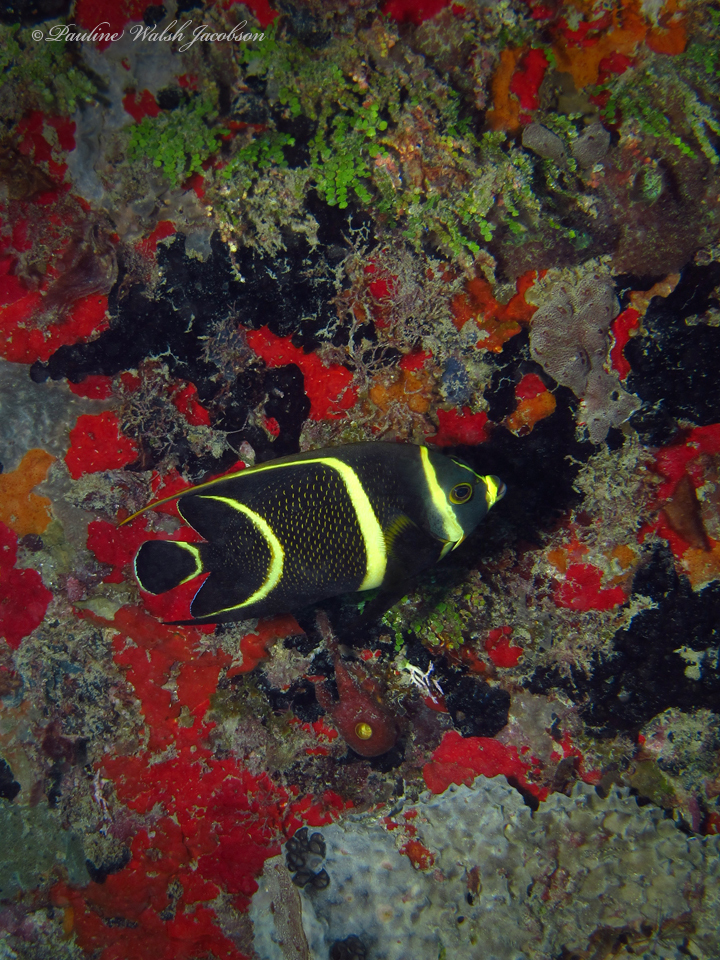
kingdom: Animalia
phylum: Chordata
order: Perciformes
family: Pomacanthidae
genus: Pomacanthus
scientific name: Pomacanthus paru
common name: French angelfish
